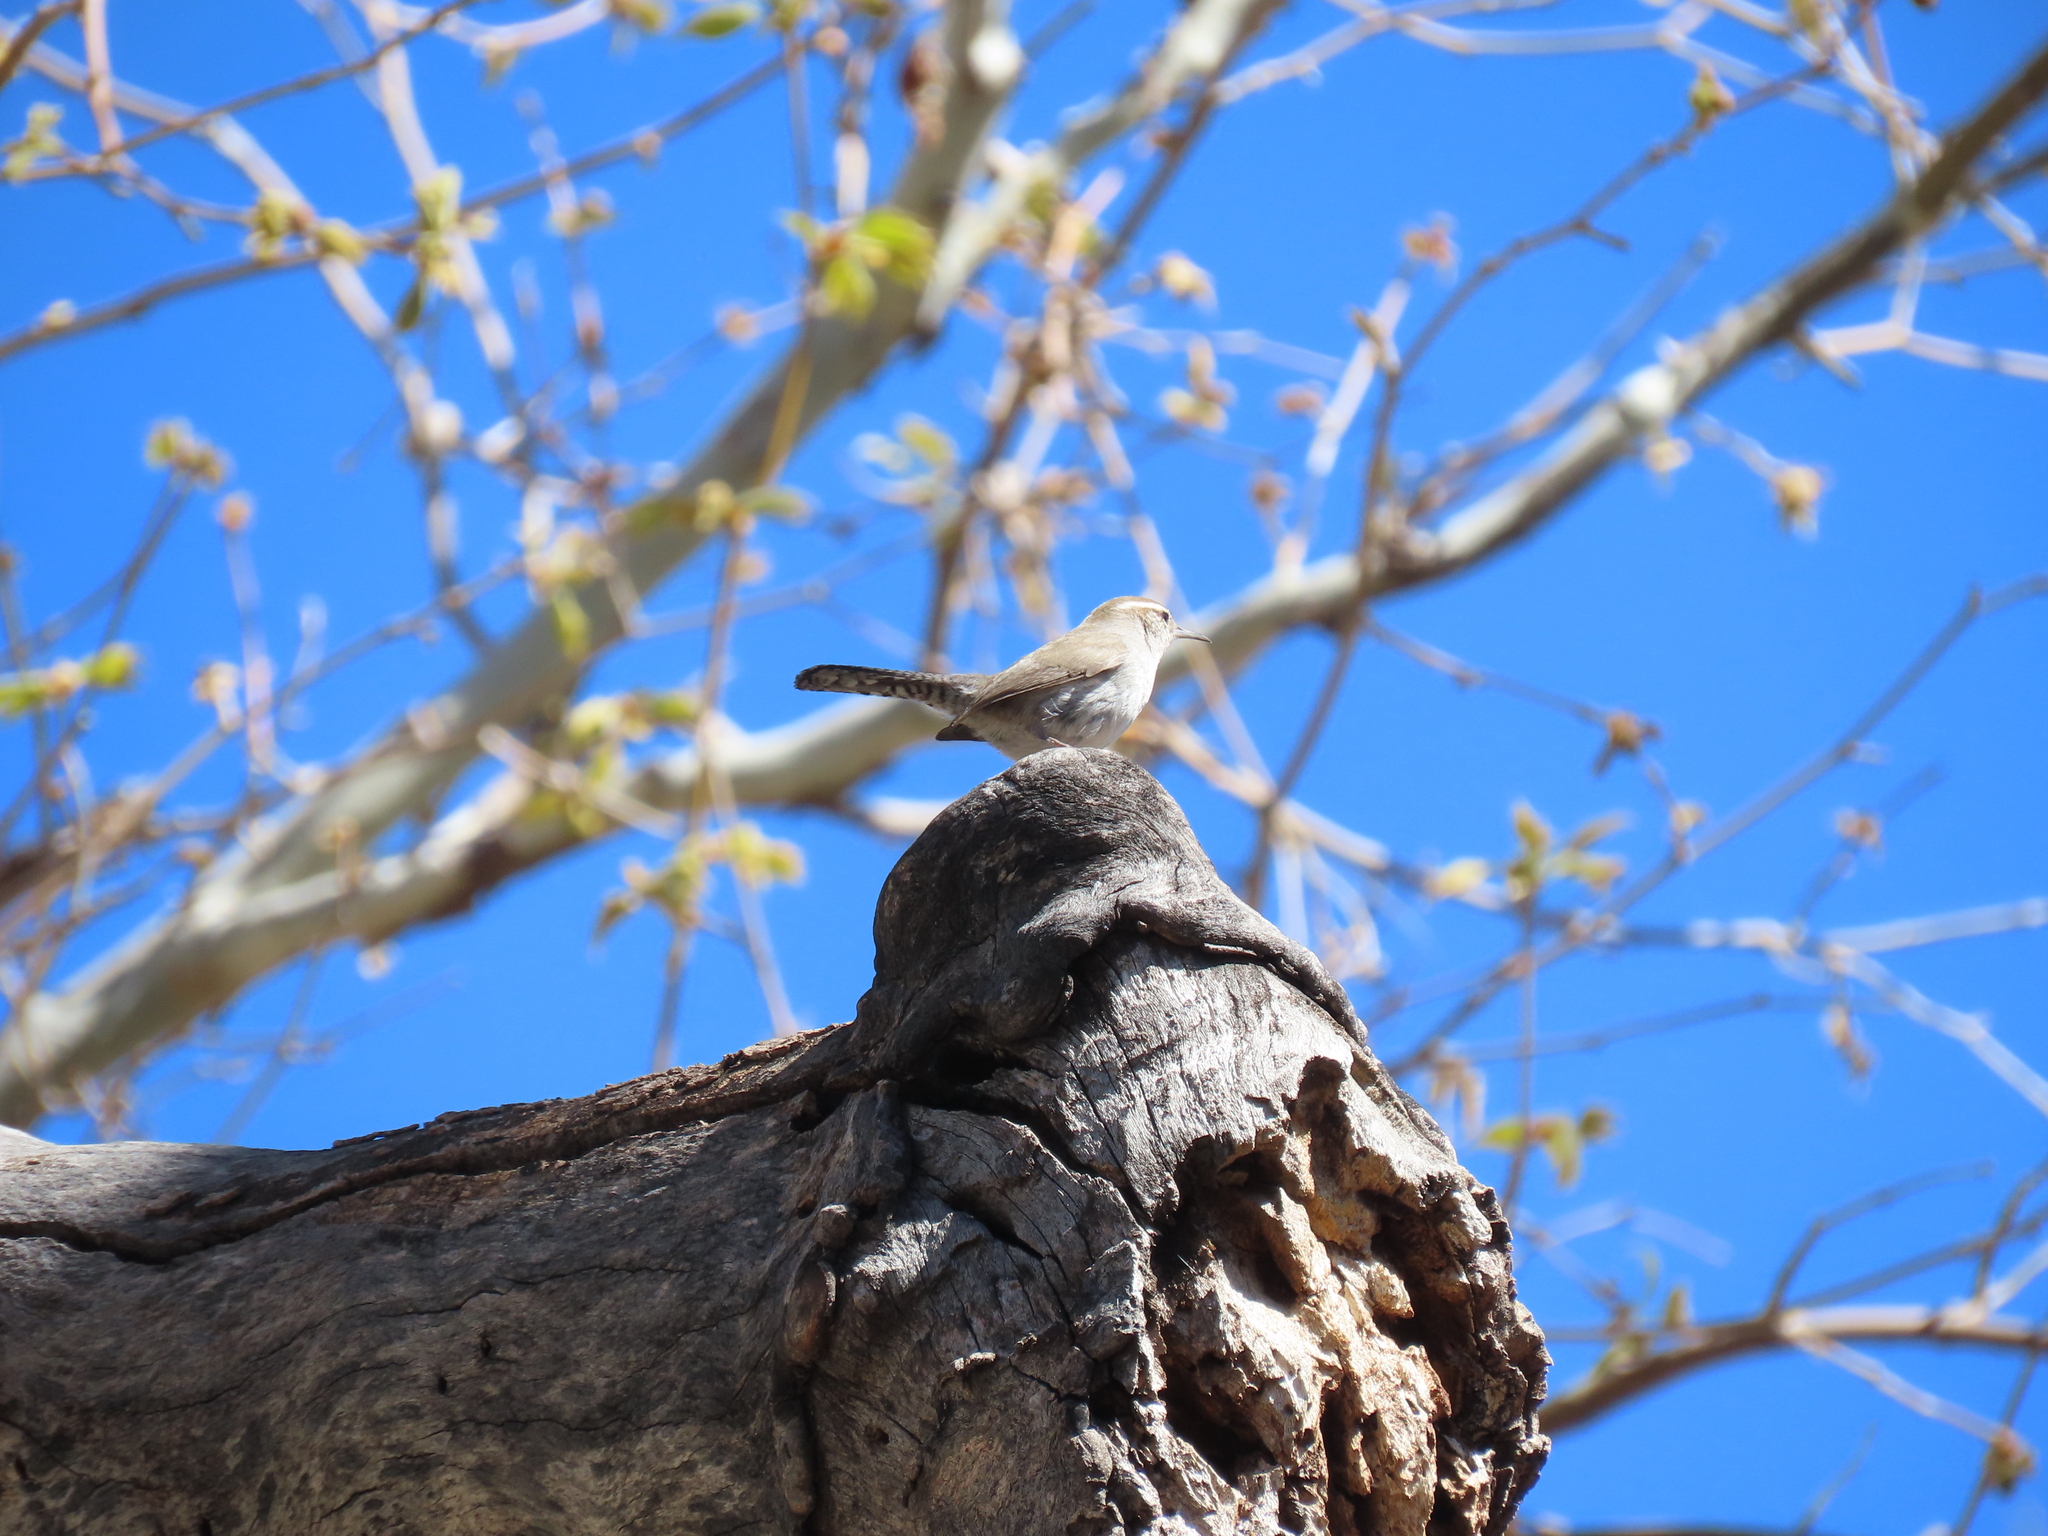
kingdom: Animalia
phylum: Chordata
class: Aves
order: Passeriformes
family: Troglodytidae
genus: Thryomanes
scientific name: Thryomanes bewickii
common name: Bewick's wren
